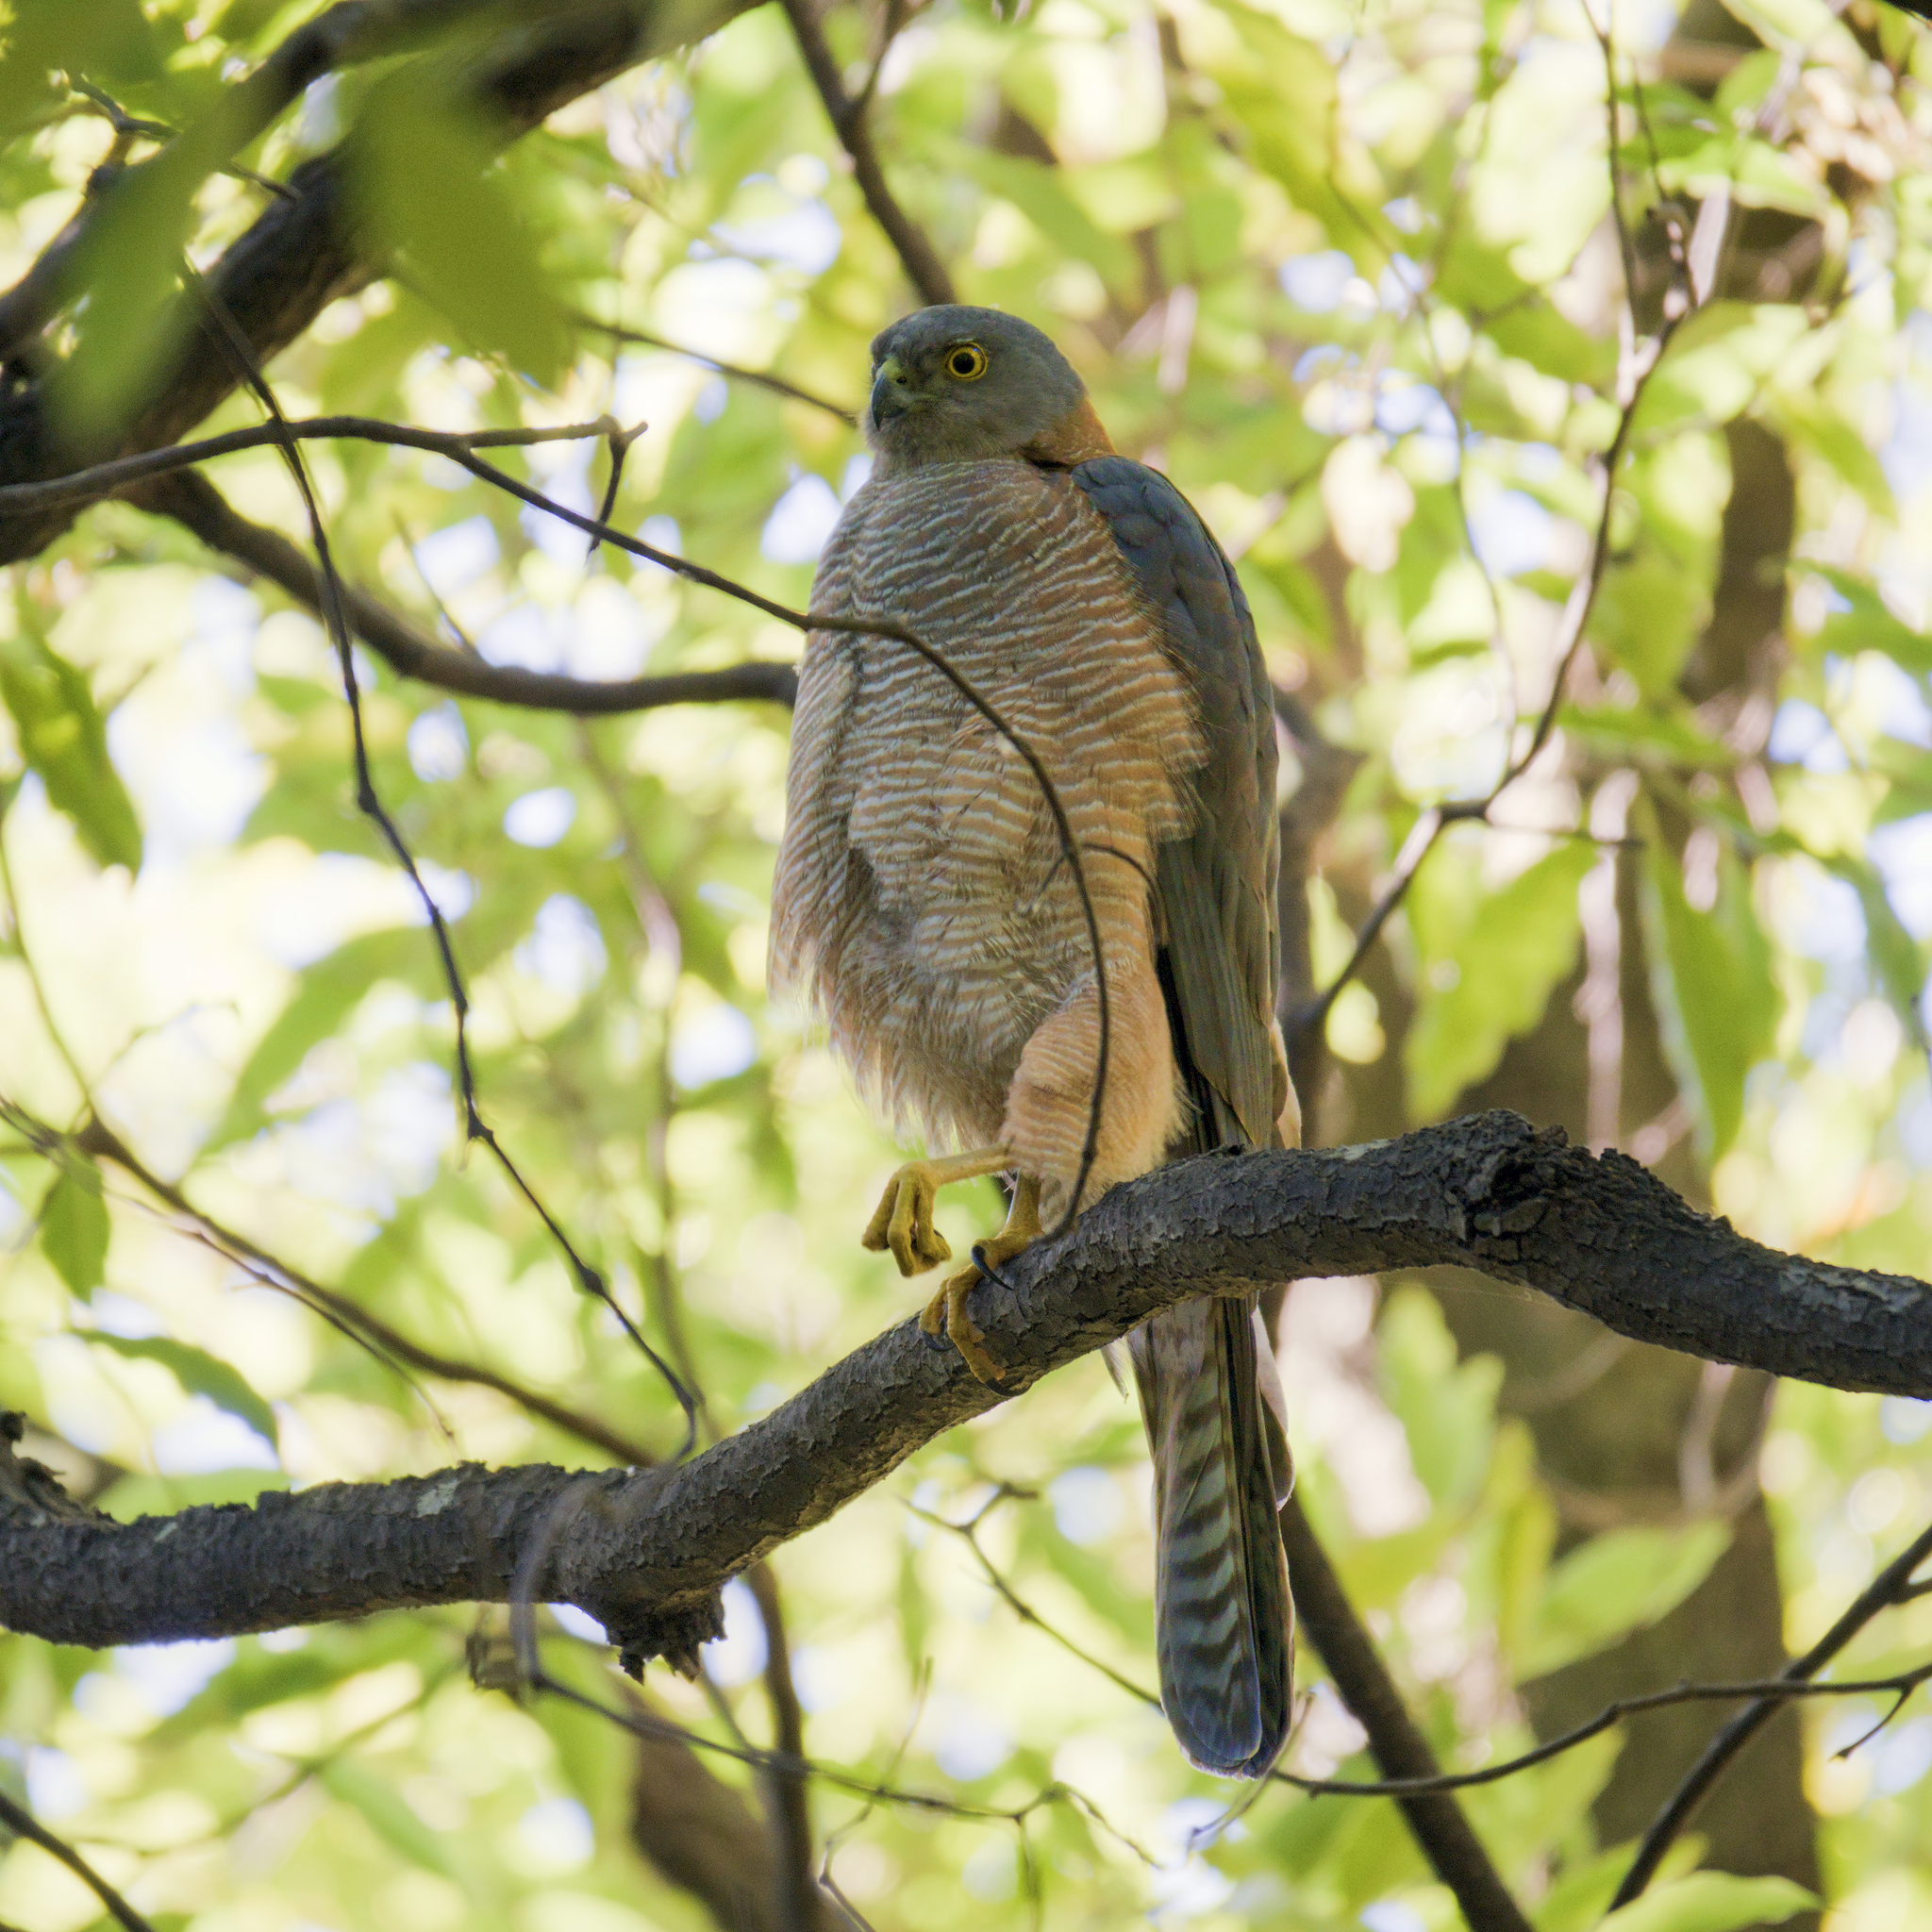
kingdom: Animalia
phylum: Chordata
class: Aves
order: Accipitriformes
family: Accipitridae
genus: Accipiter
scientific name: Accipiter cirrocephalus
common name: Collared sparrowhawk
